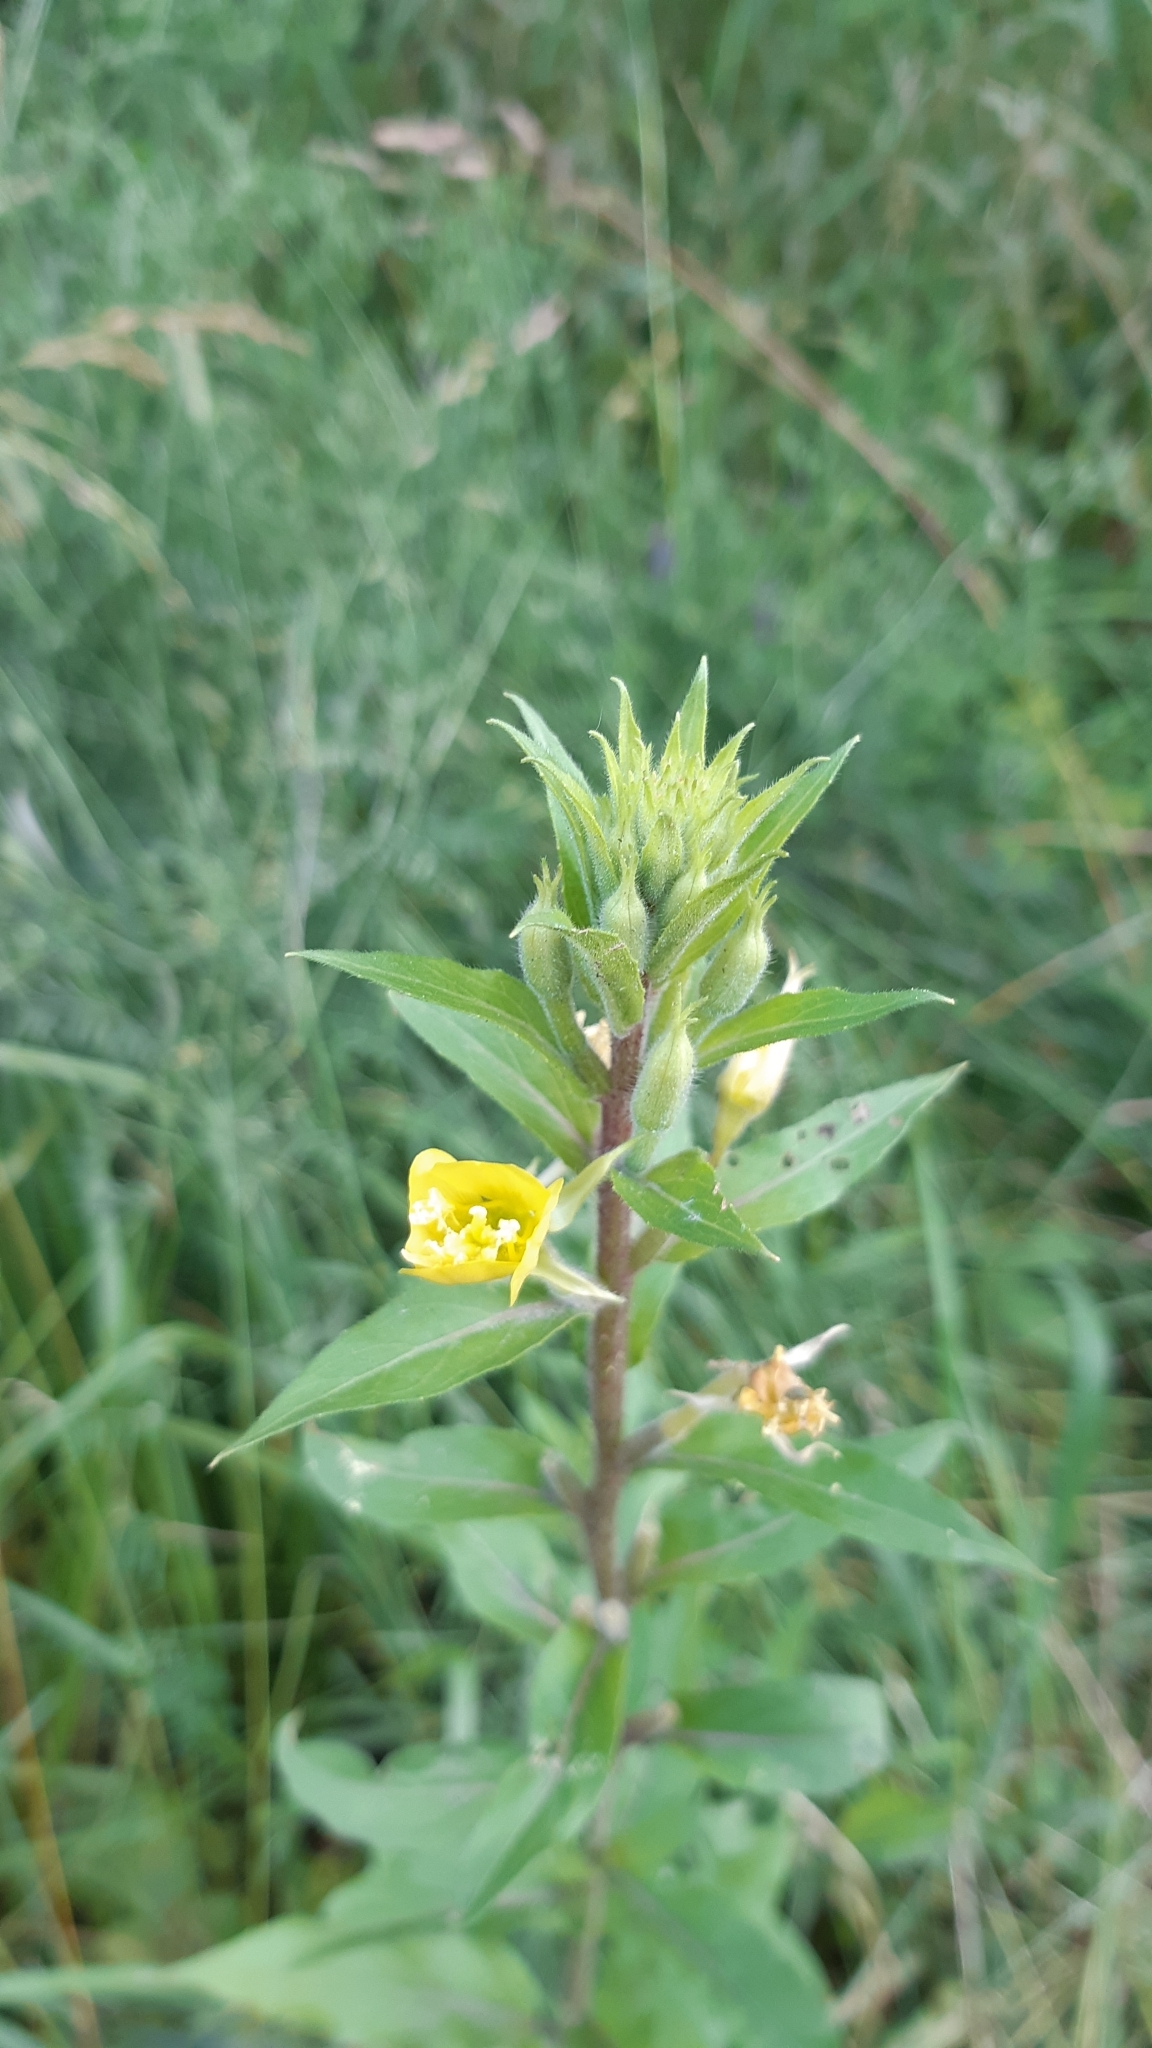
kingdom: Plantae
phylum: Tracheophyta
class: Magnoliopsida
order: Myrtales
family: Onagraceae
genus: Oenothera
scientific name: Oenothera rubricaulis
